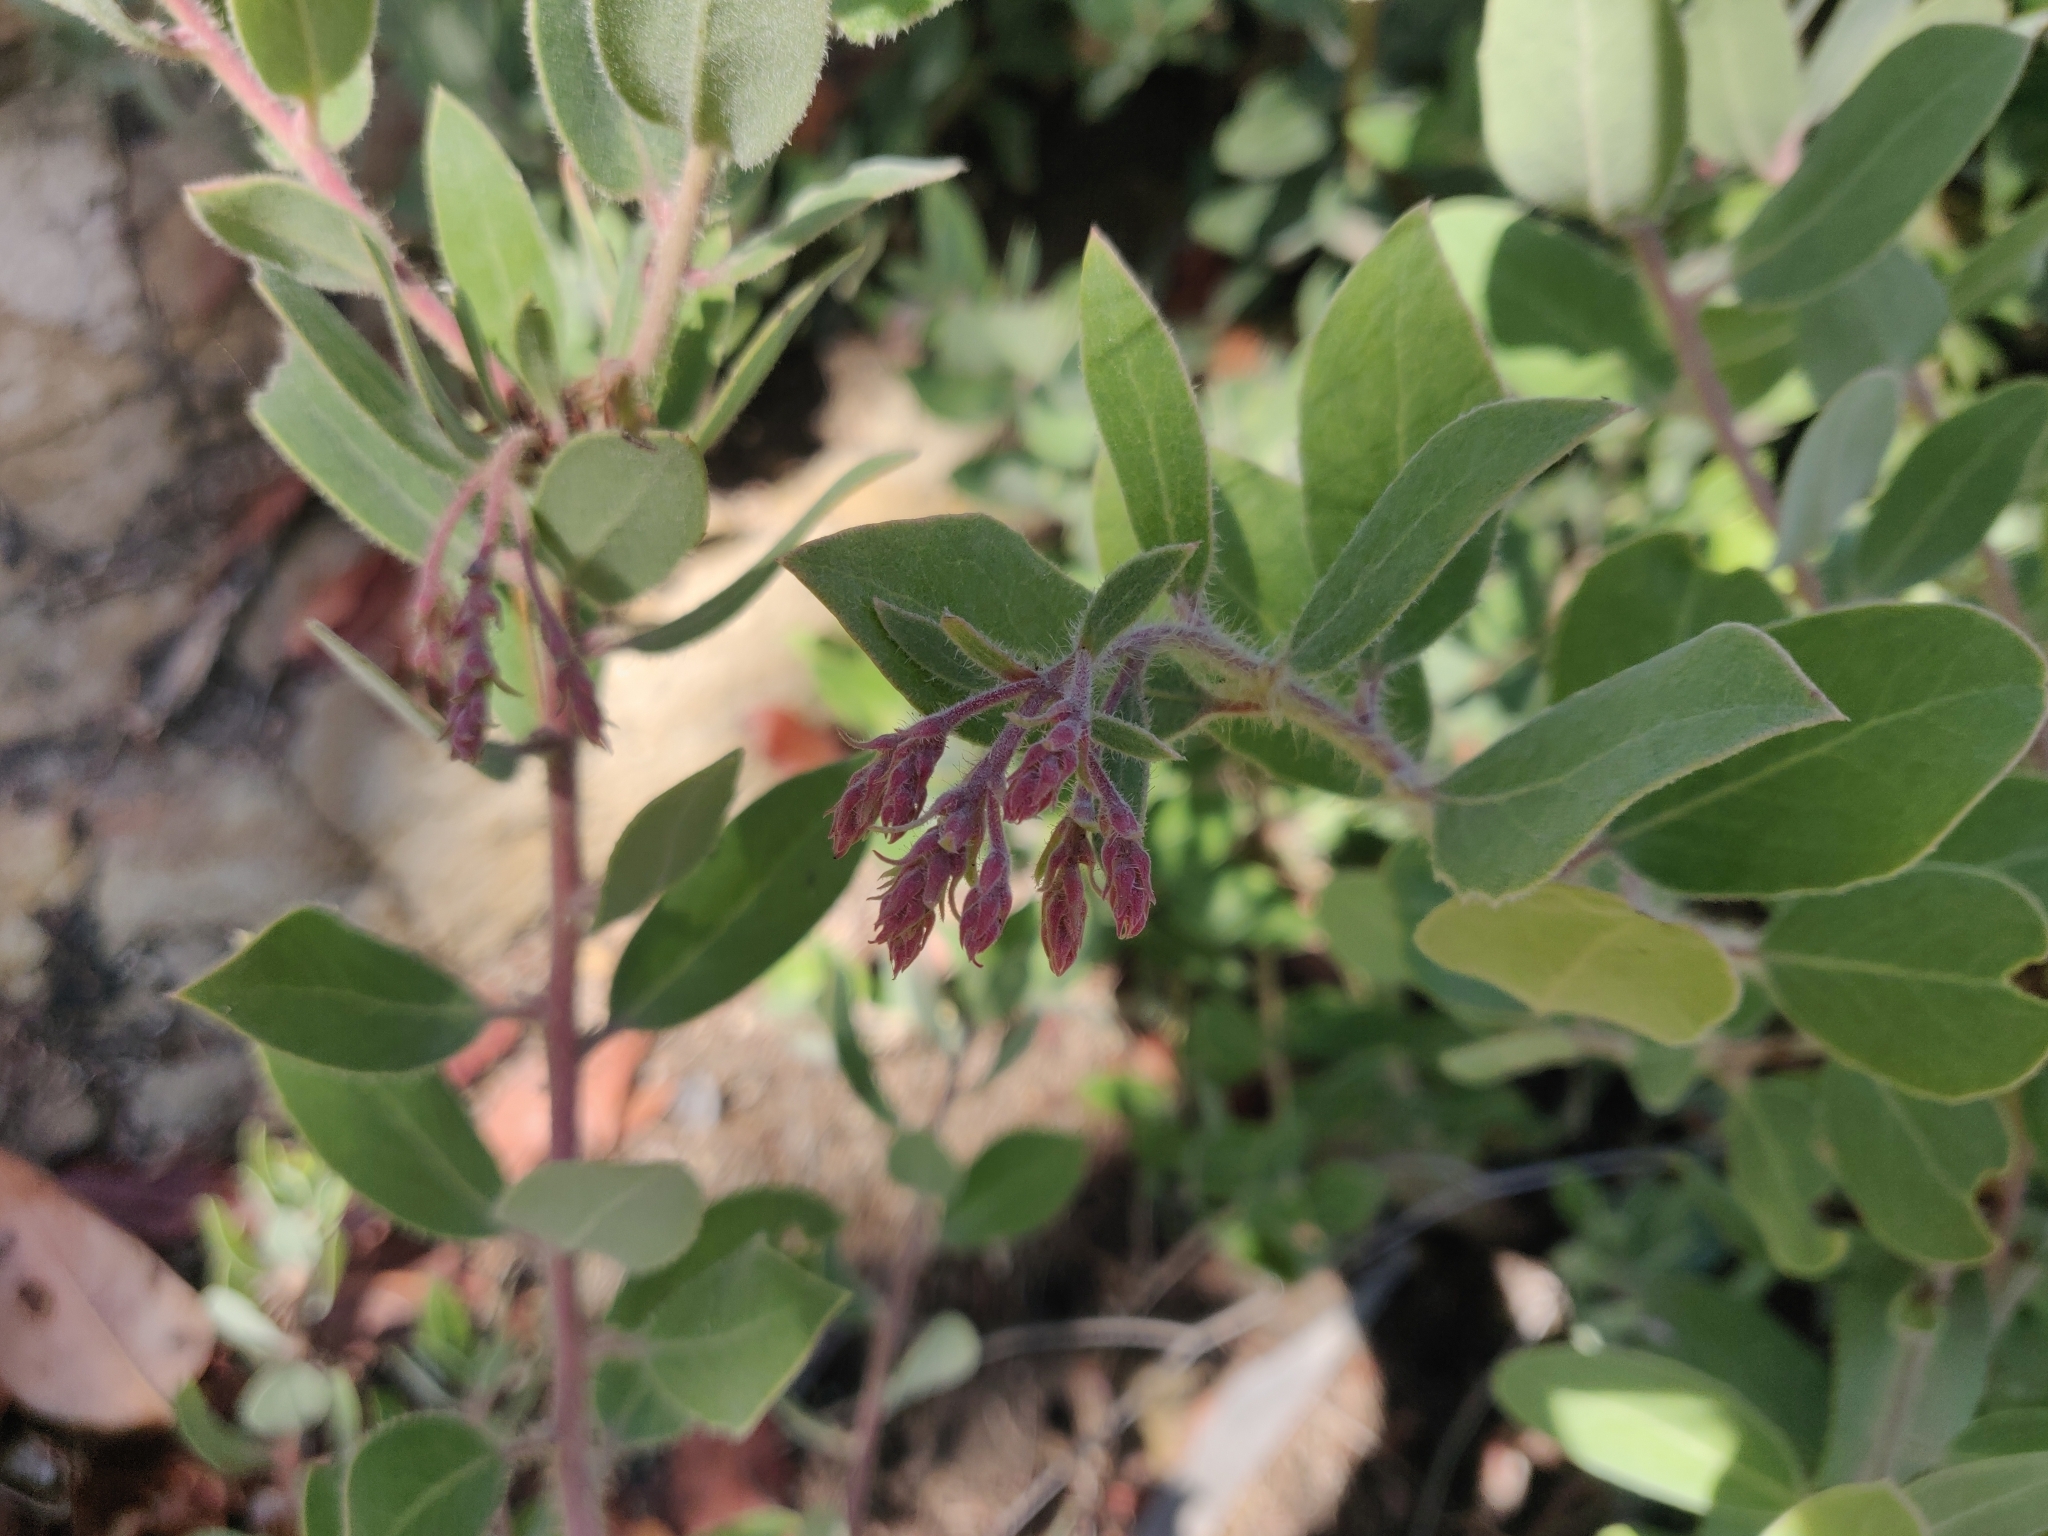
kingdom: Plantae
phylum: Tracheophyta
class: Magnoliopsida
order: Ericales
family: Ericaceae
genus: Arctostaphylos
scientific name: Arctostaphylos crustacea
